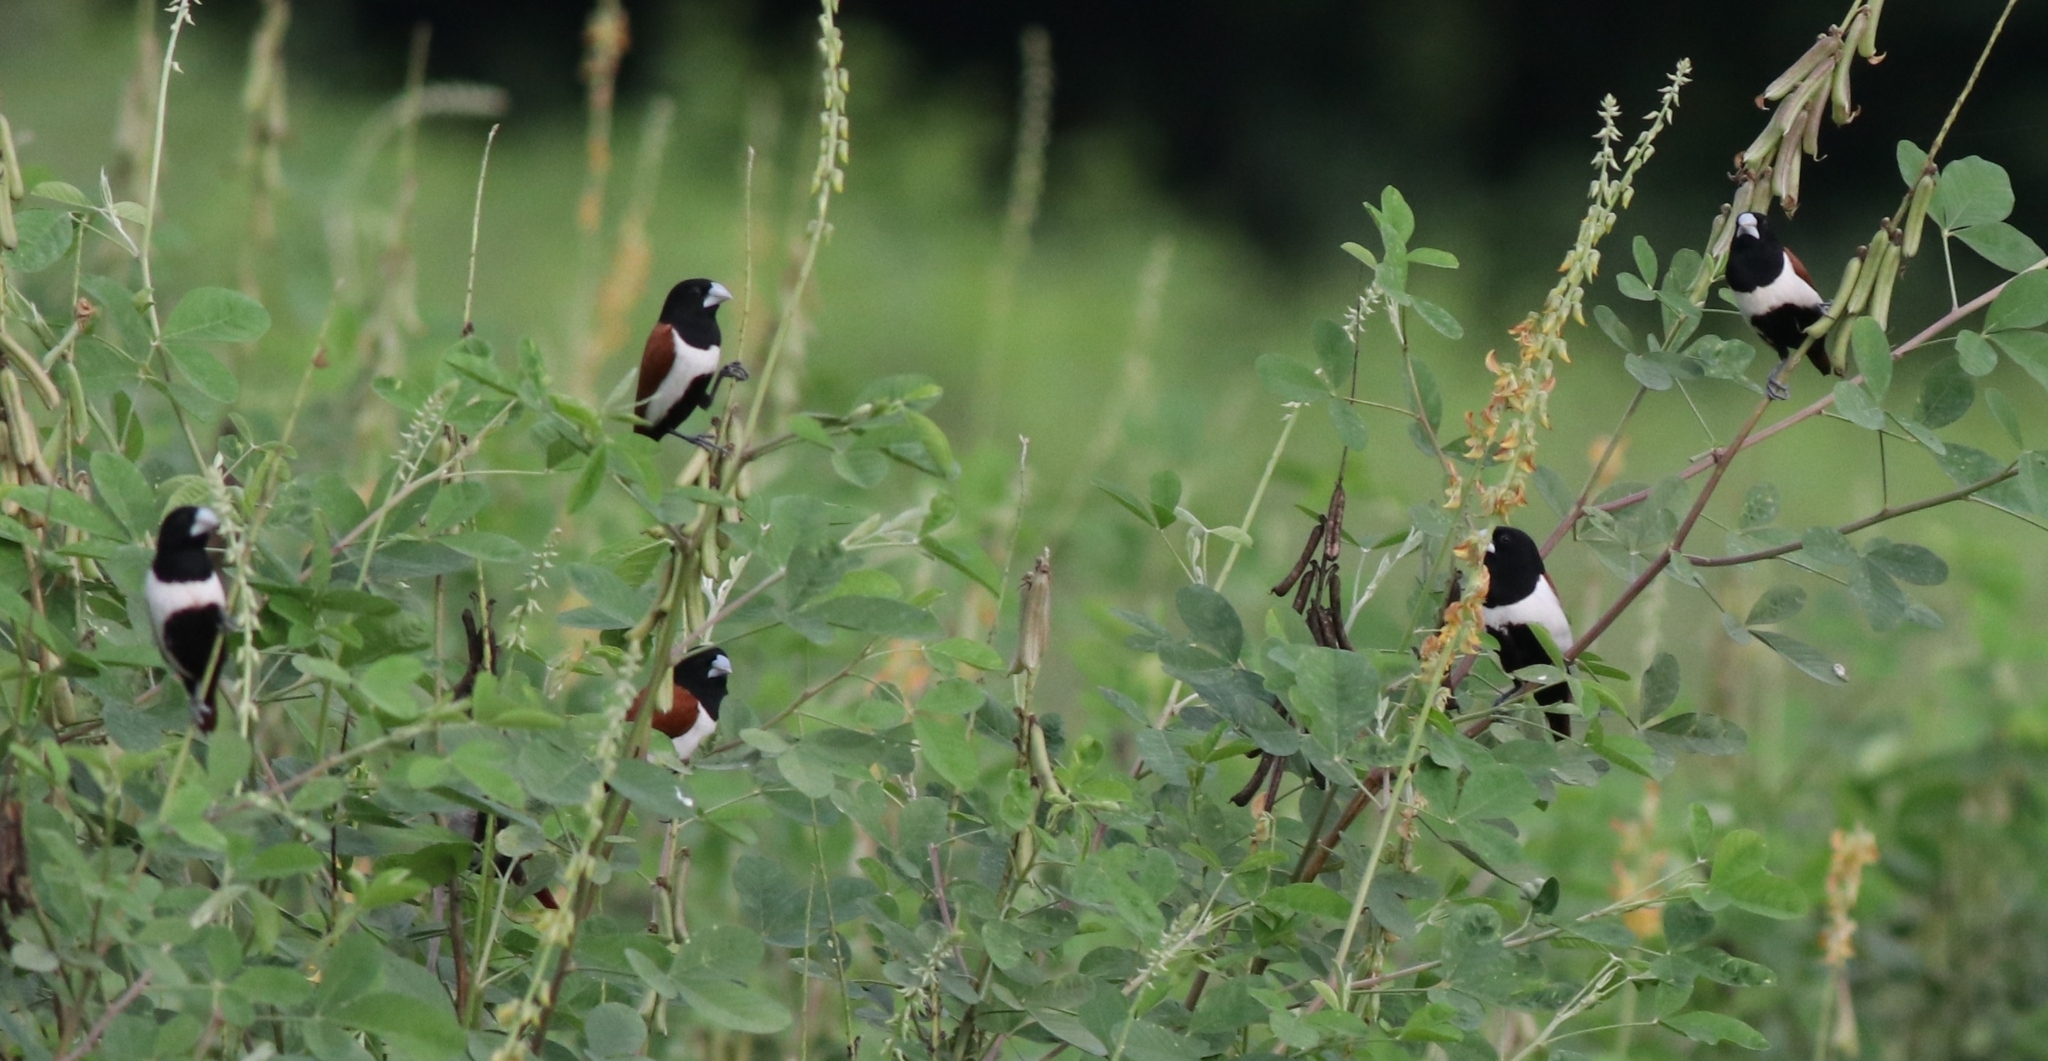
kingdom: Animalia
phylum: Chordata
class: Aves
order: Passeriformes
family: Estrildidae
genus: Lonchura
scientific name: Lonchura malacca
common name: Tricolored munia
